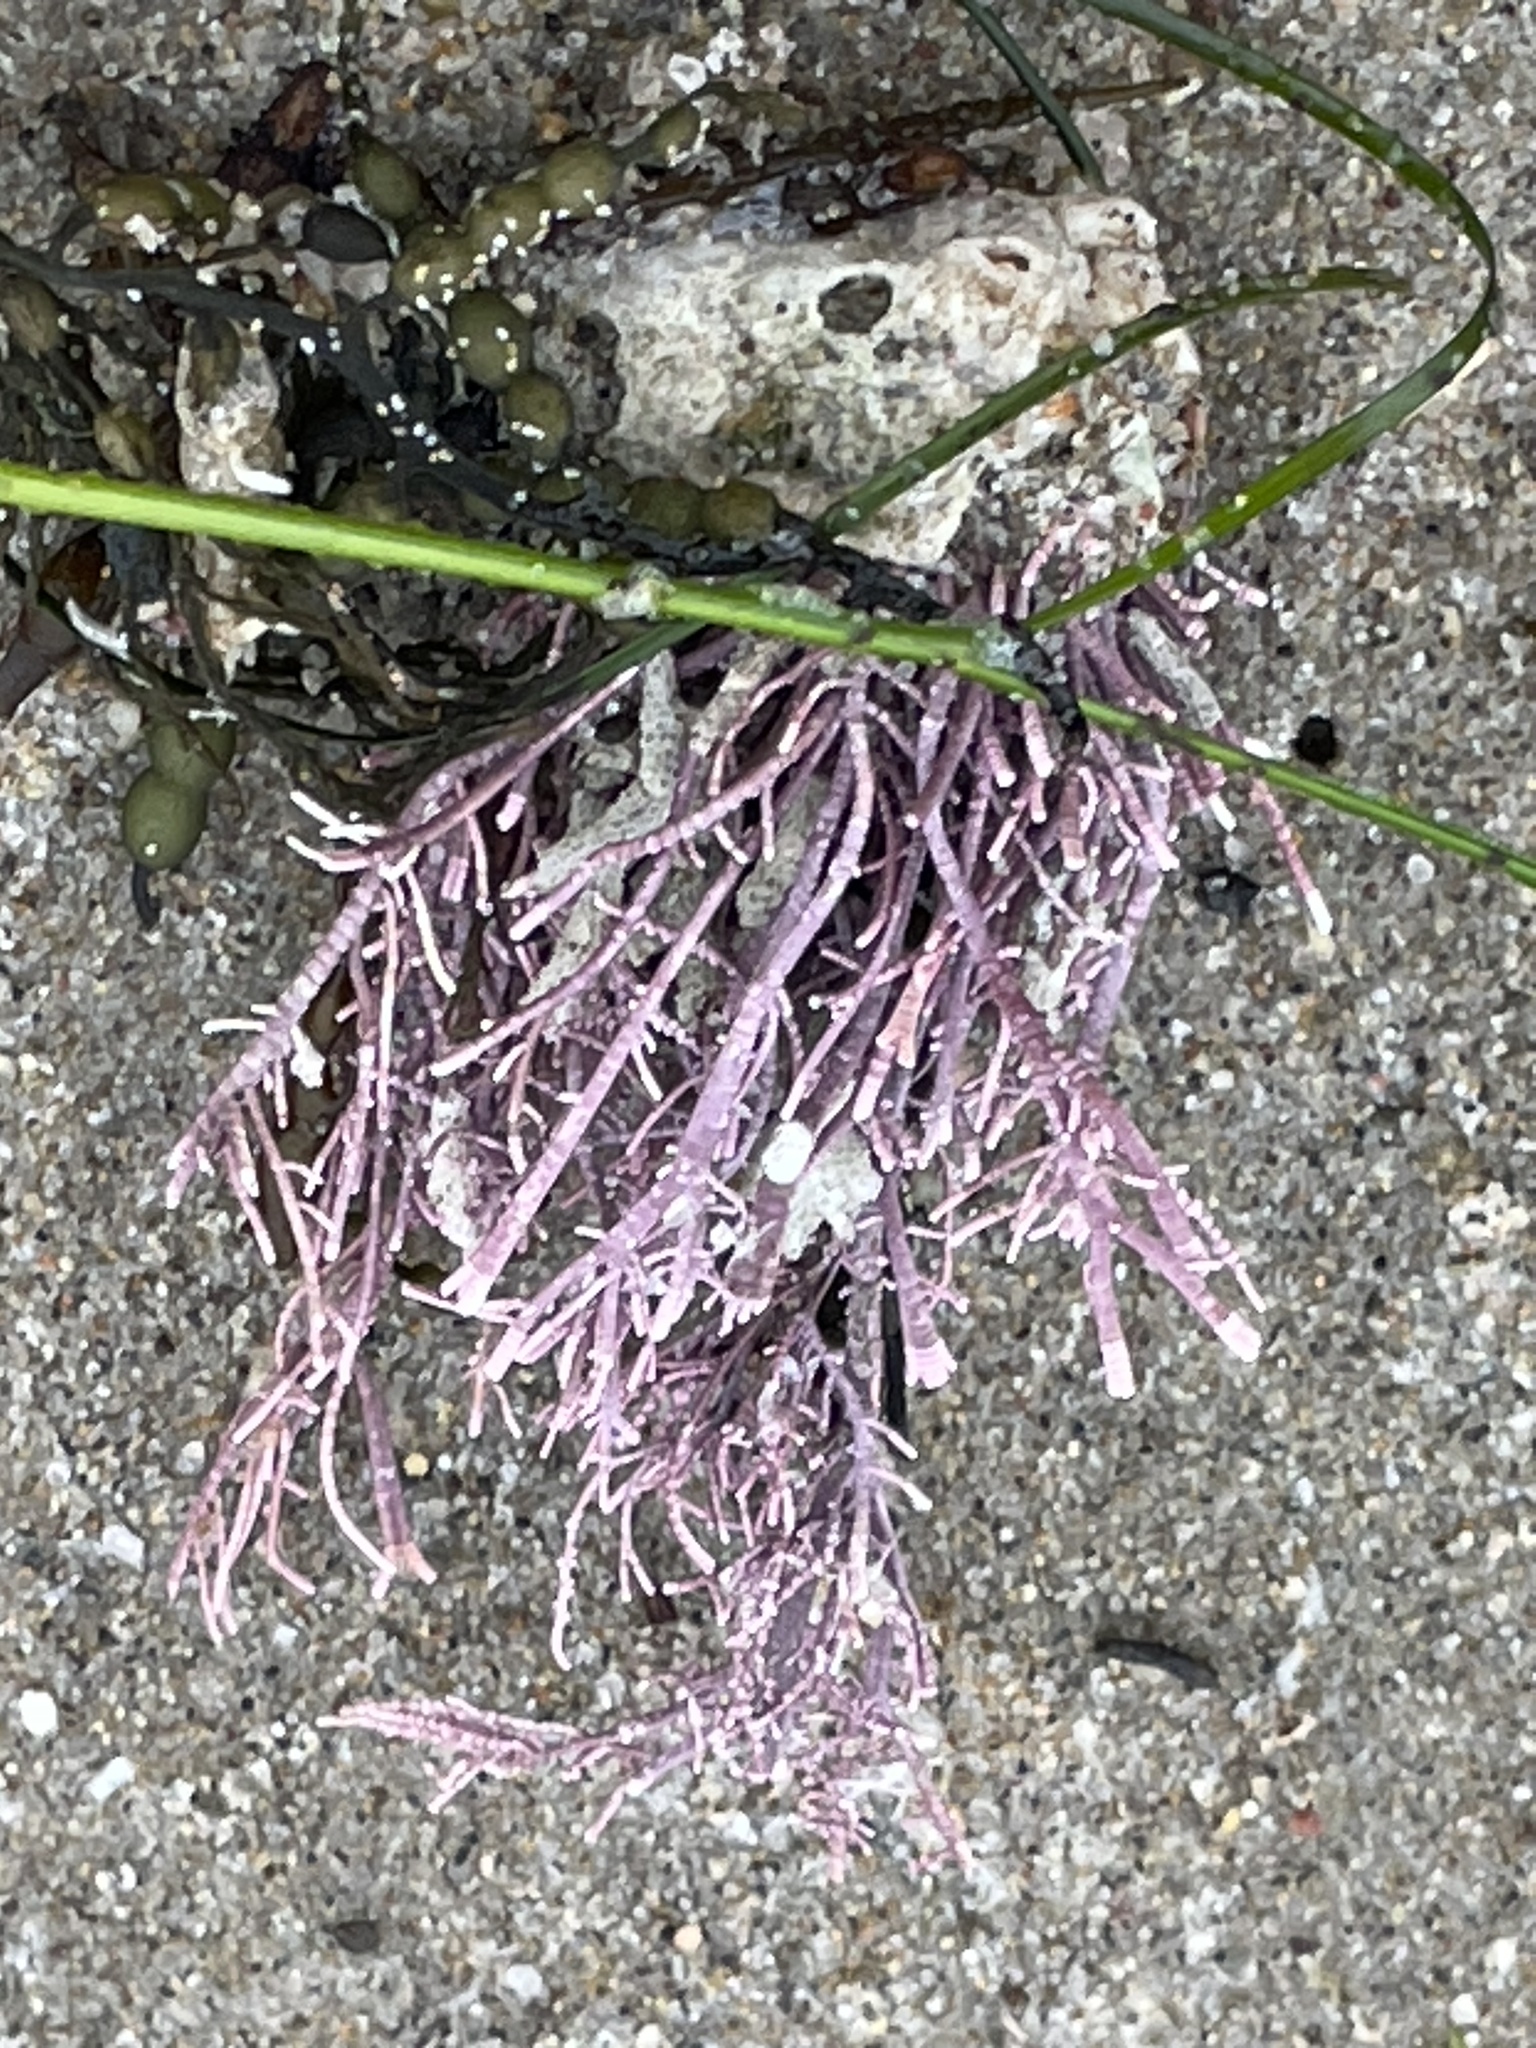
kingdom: Plantae
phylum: Rhodophyta
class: Florideophyceae
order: Corallinales
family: Lithophyllaceae
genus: Lithothrix
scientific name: Lithothrix aspergillum
